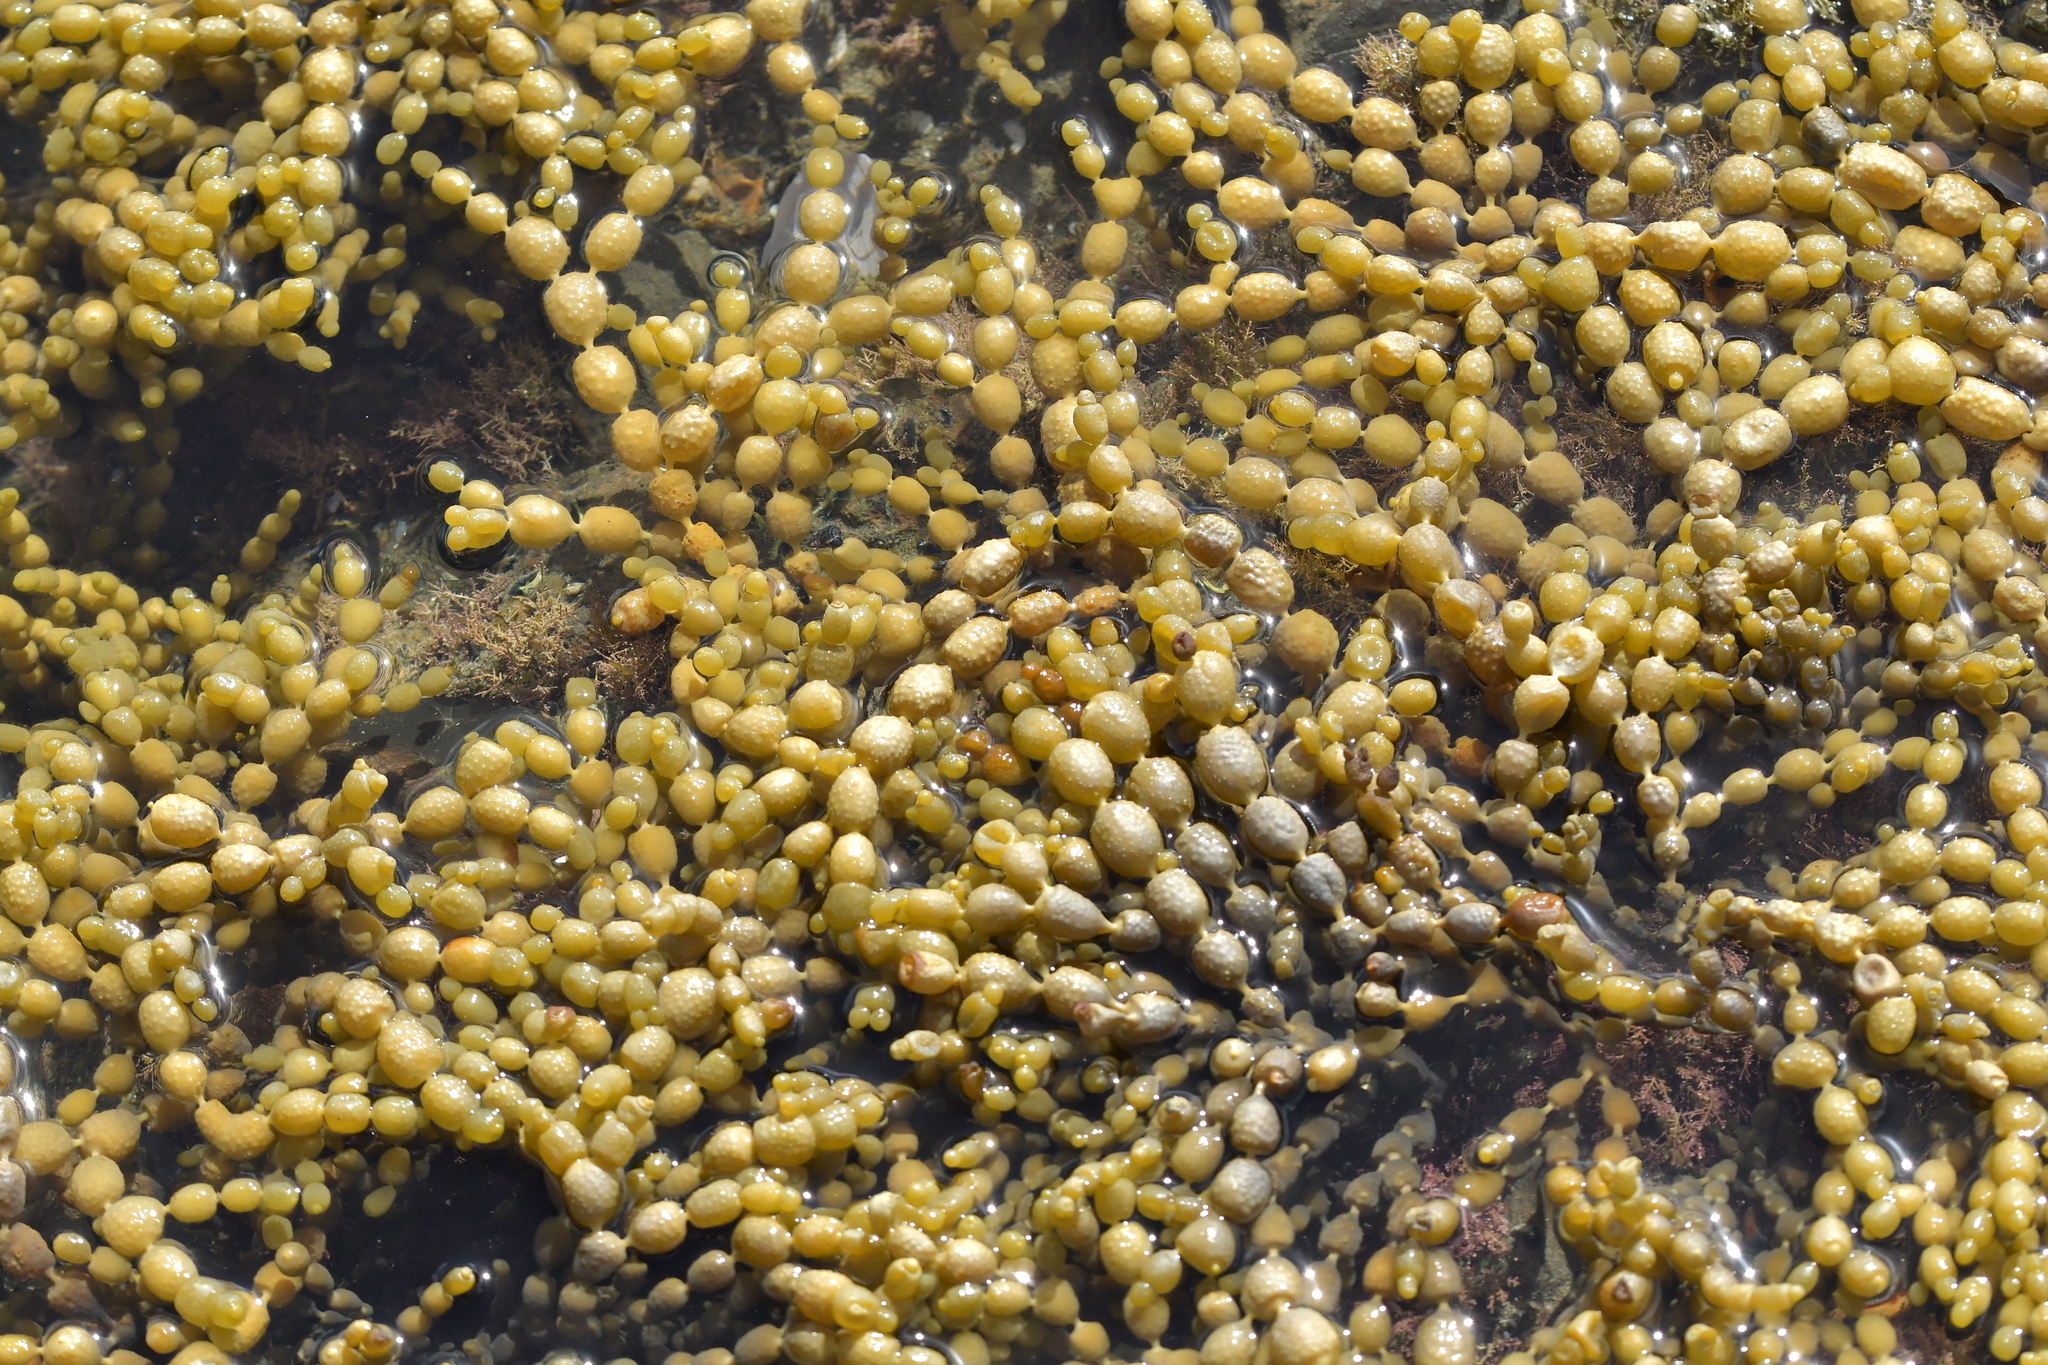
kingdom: Chromista
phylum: Ochrophyta
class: Phaeophyceae
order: Fucales
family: Hormosiraceae
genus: Hormosira
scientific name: Hormosira banksii
